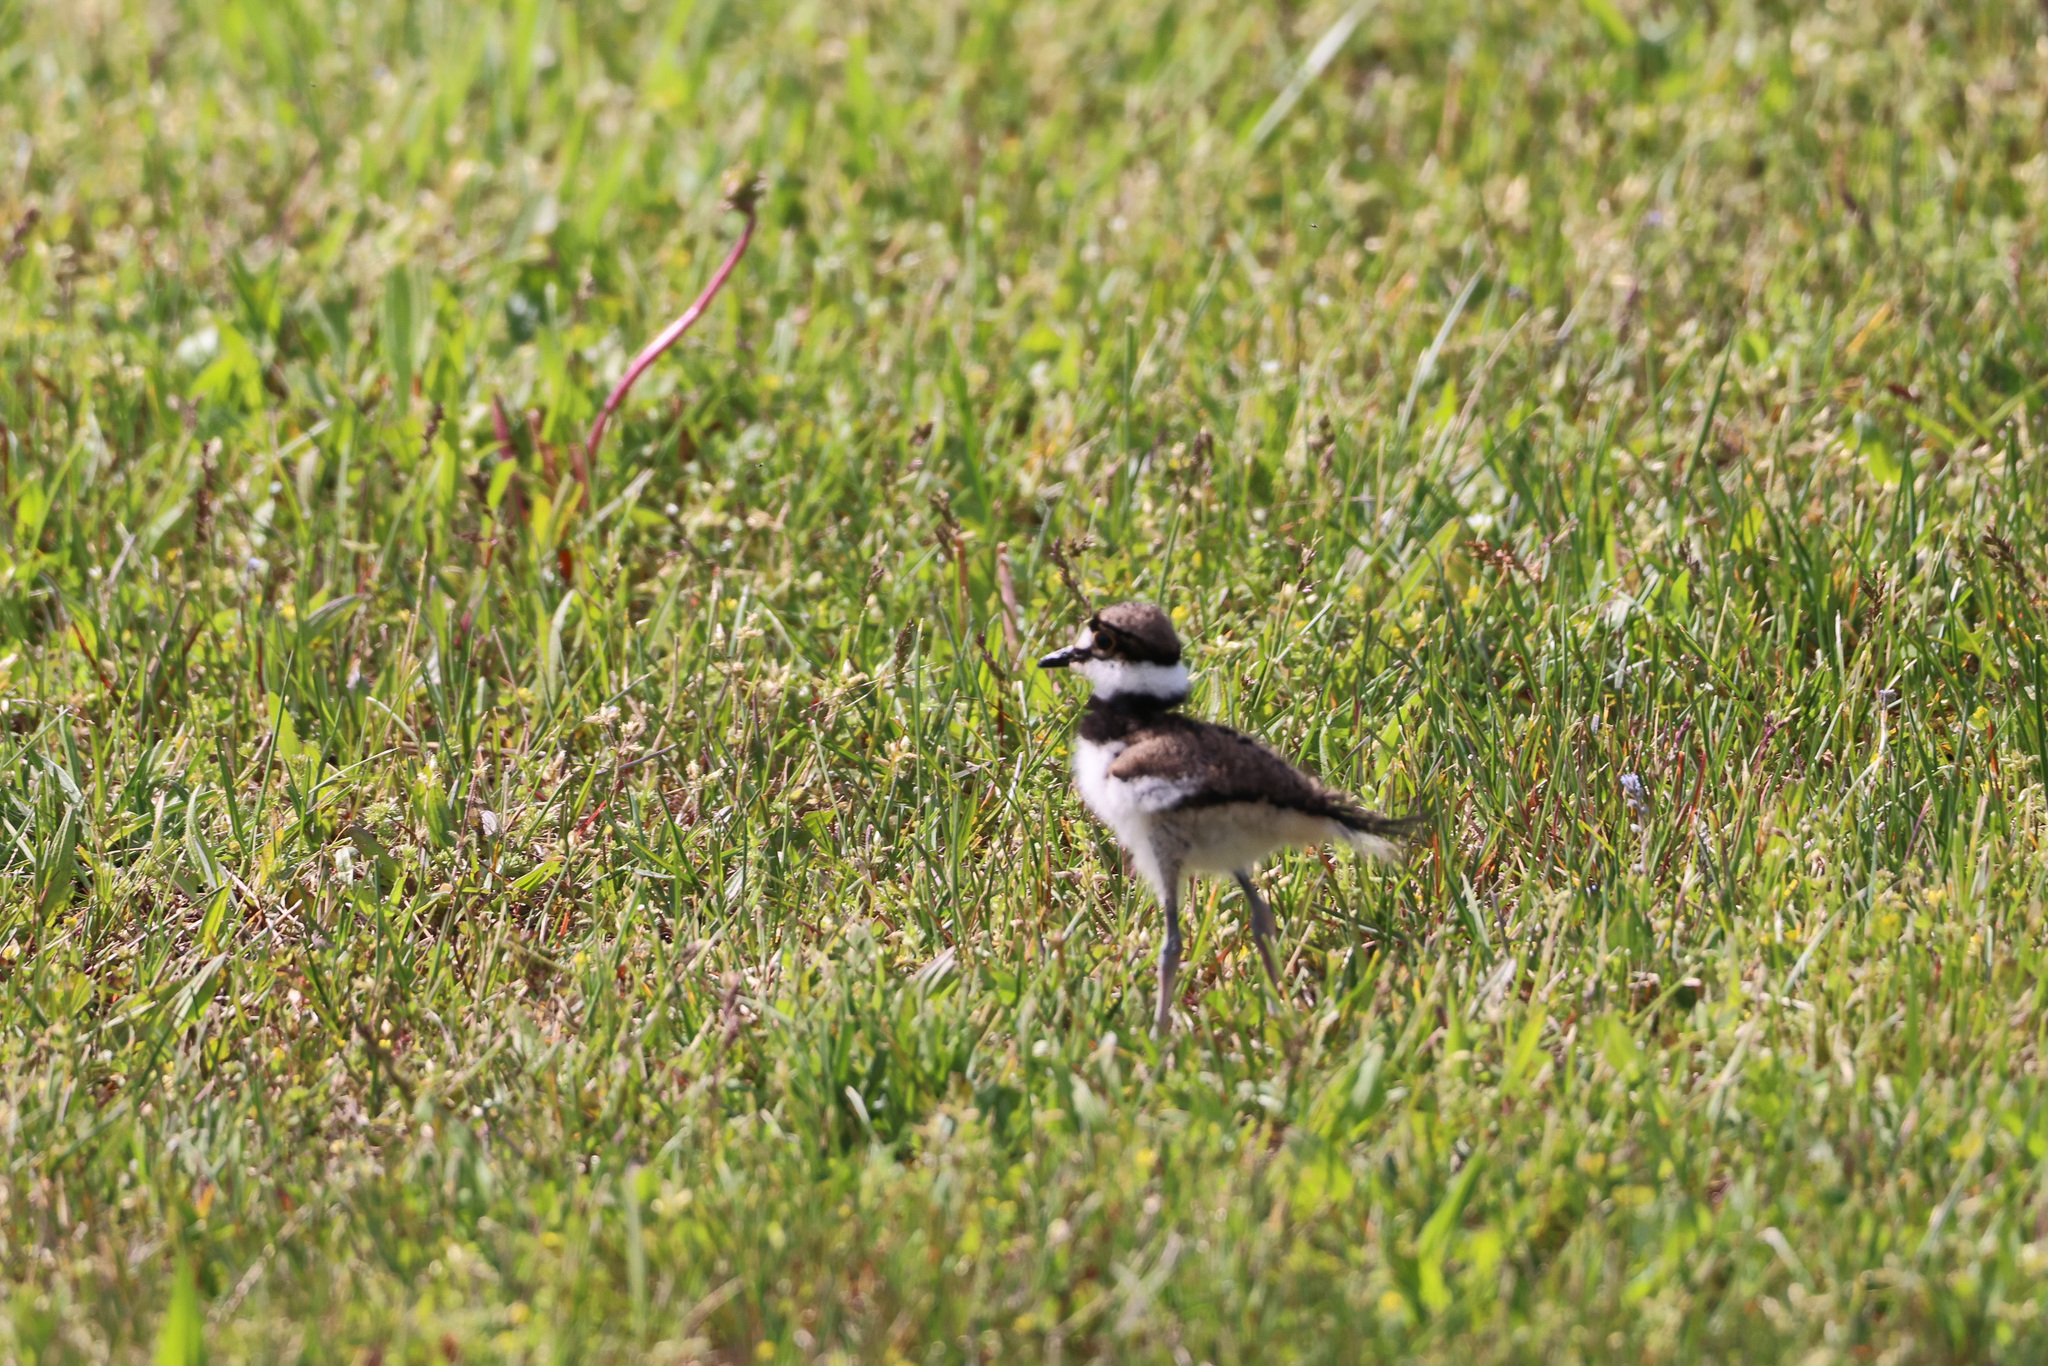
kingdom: Animalia
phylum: Chordata
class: Aves
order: Charadriiformes
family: Charadriidae
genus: Charadrius
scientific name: Charadrius vociferus
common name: Killdeer
